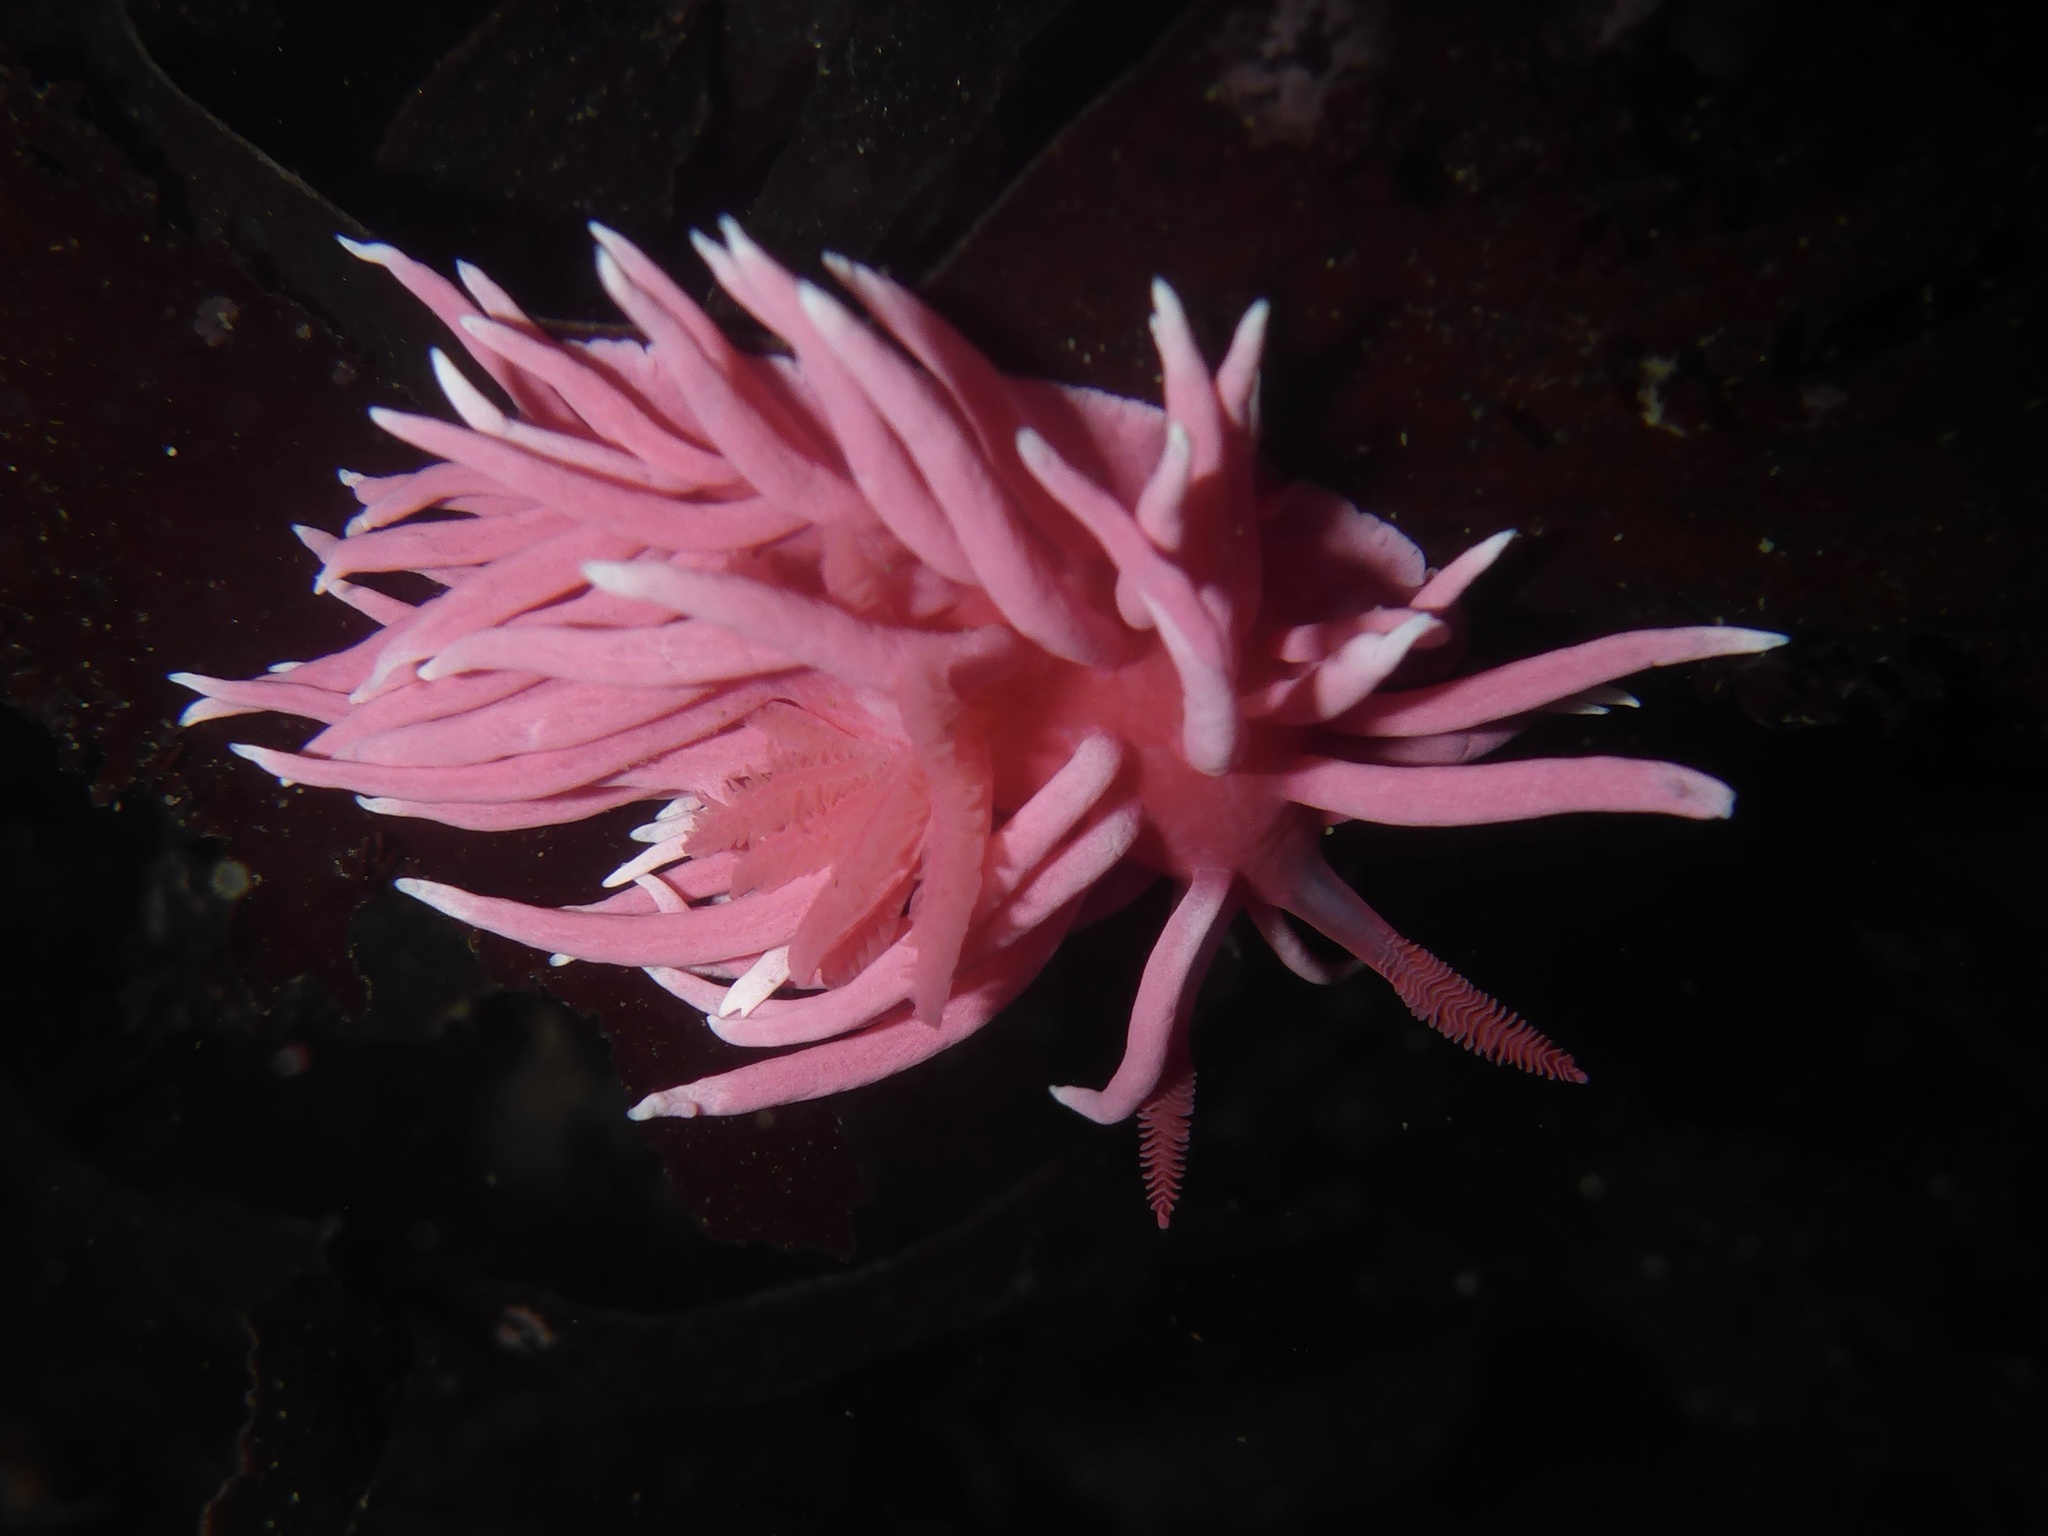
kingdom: Animalia
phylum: Mollusca
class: Gastropoda
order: Nudibranchia
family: Goniodorididae
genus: Okenia
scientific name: Okenia
